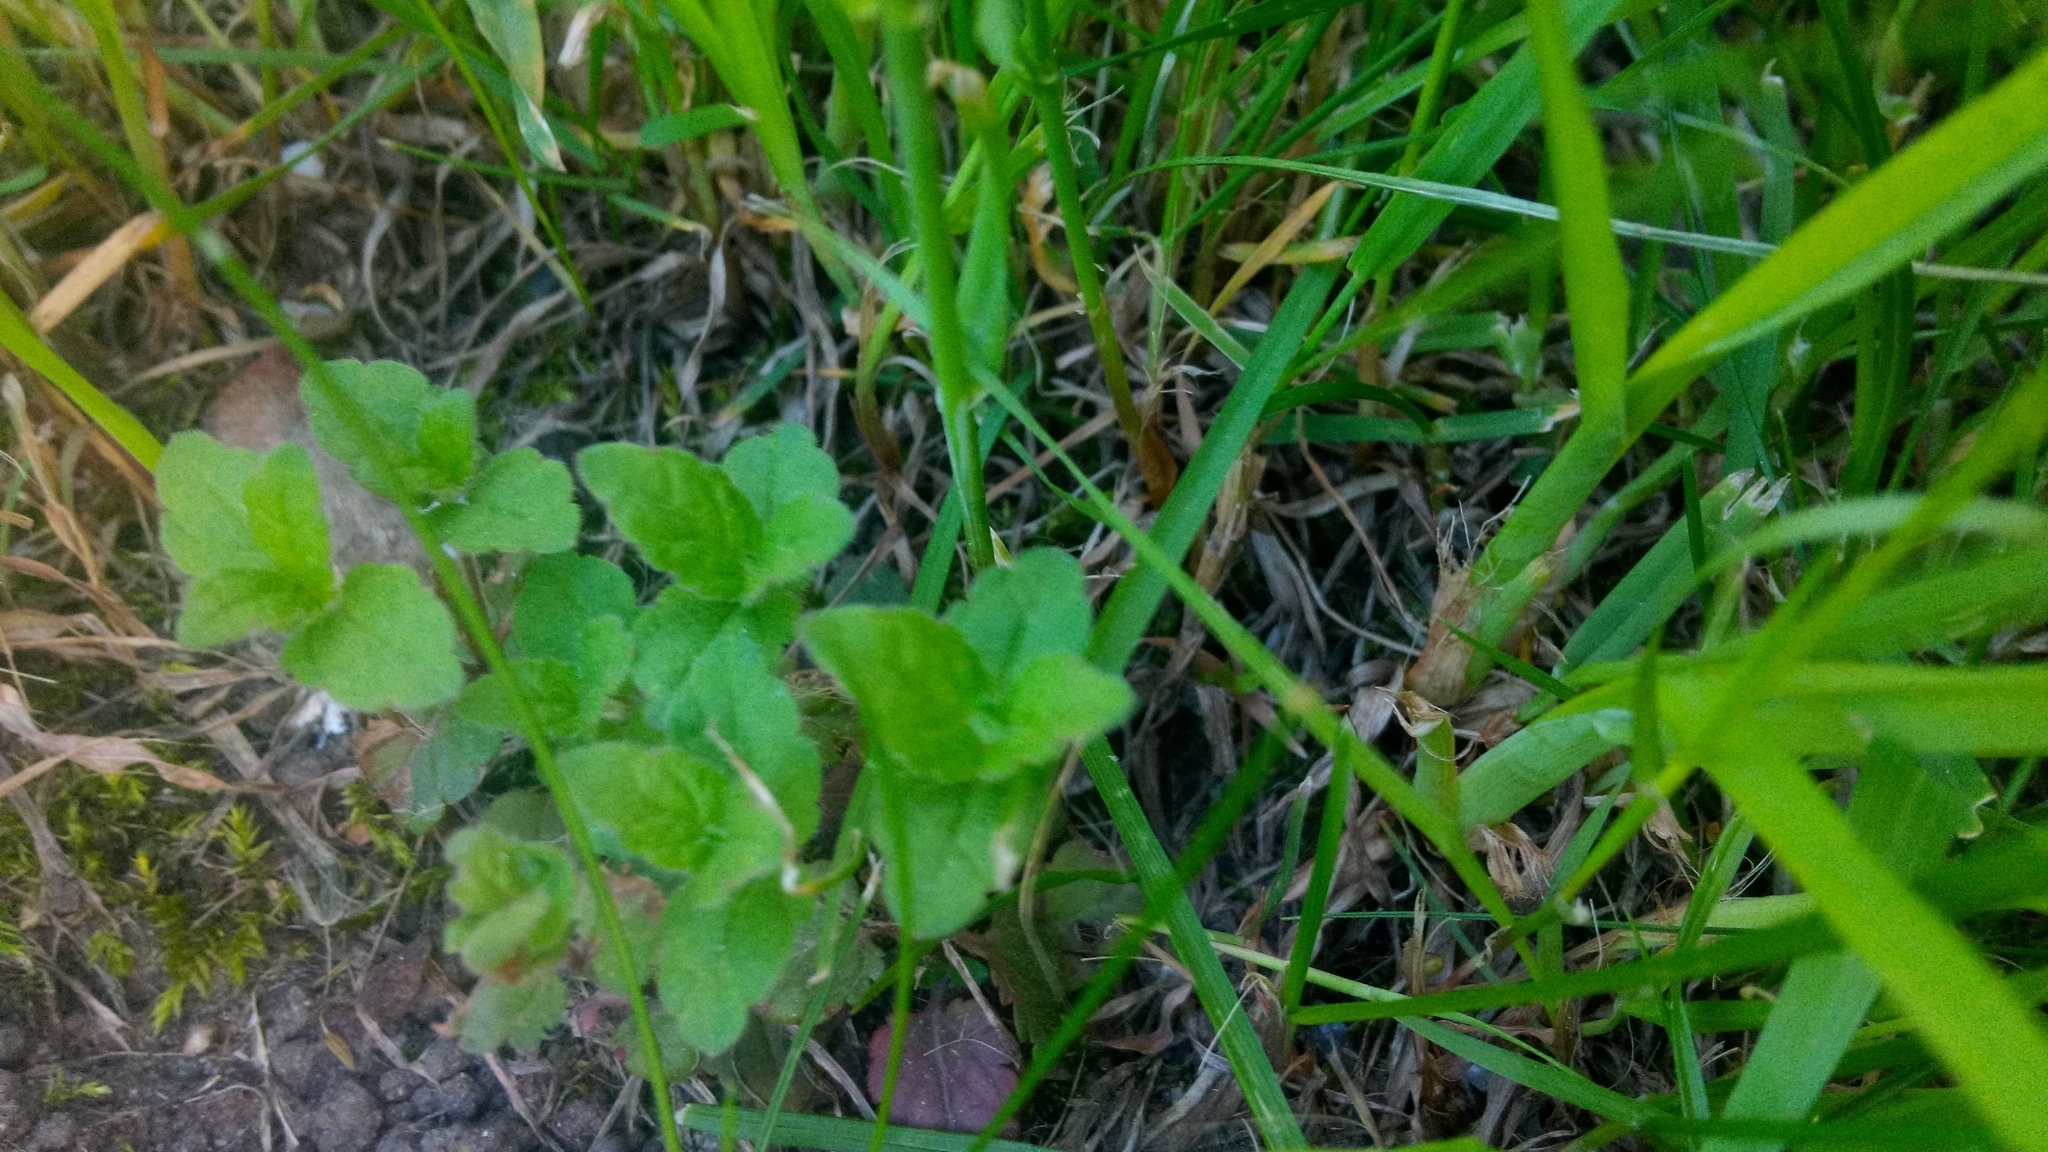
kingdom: Plantae
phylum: Tracheophyta
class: Magnoliopsida
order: Lamiales
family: Plantaginaceae
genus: Veronica
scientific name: Veronica chamaedrys
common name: Germander speedwell
